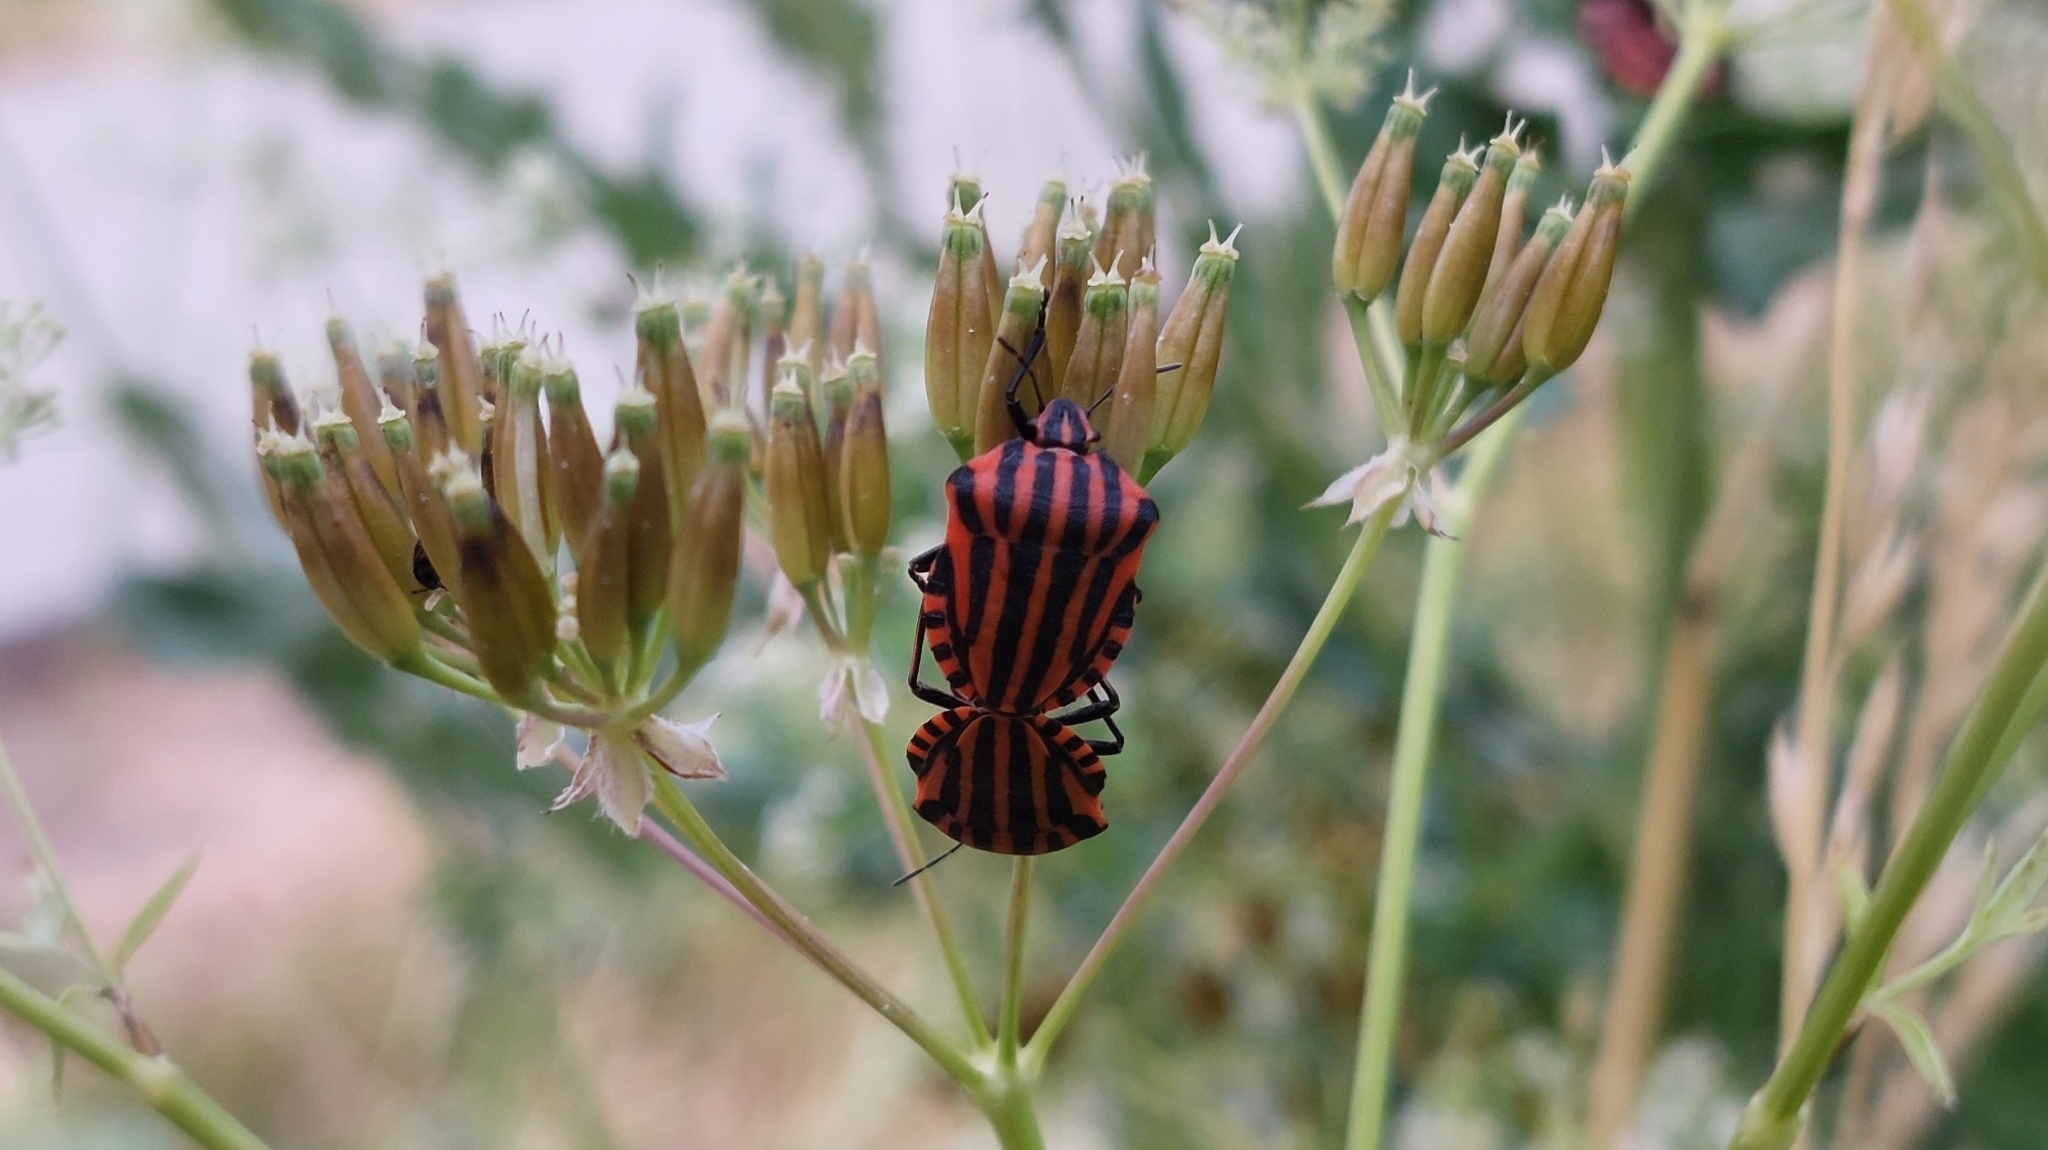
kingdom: Animalia
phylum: Arthropoda
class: Insecta
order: Hemiptera
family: Pentatomidae
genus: Graphosoma
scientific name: Graphosoma italicum
